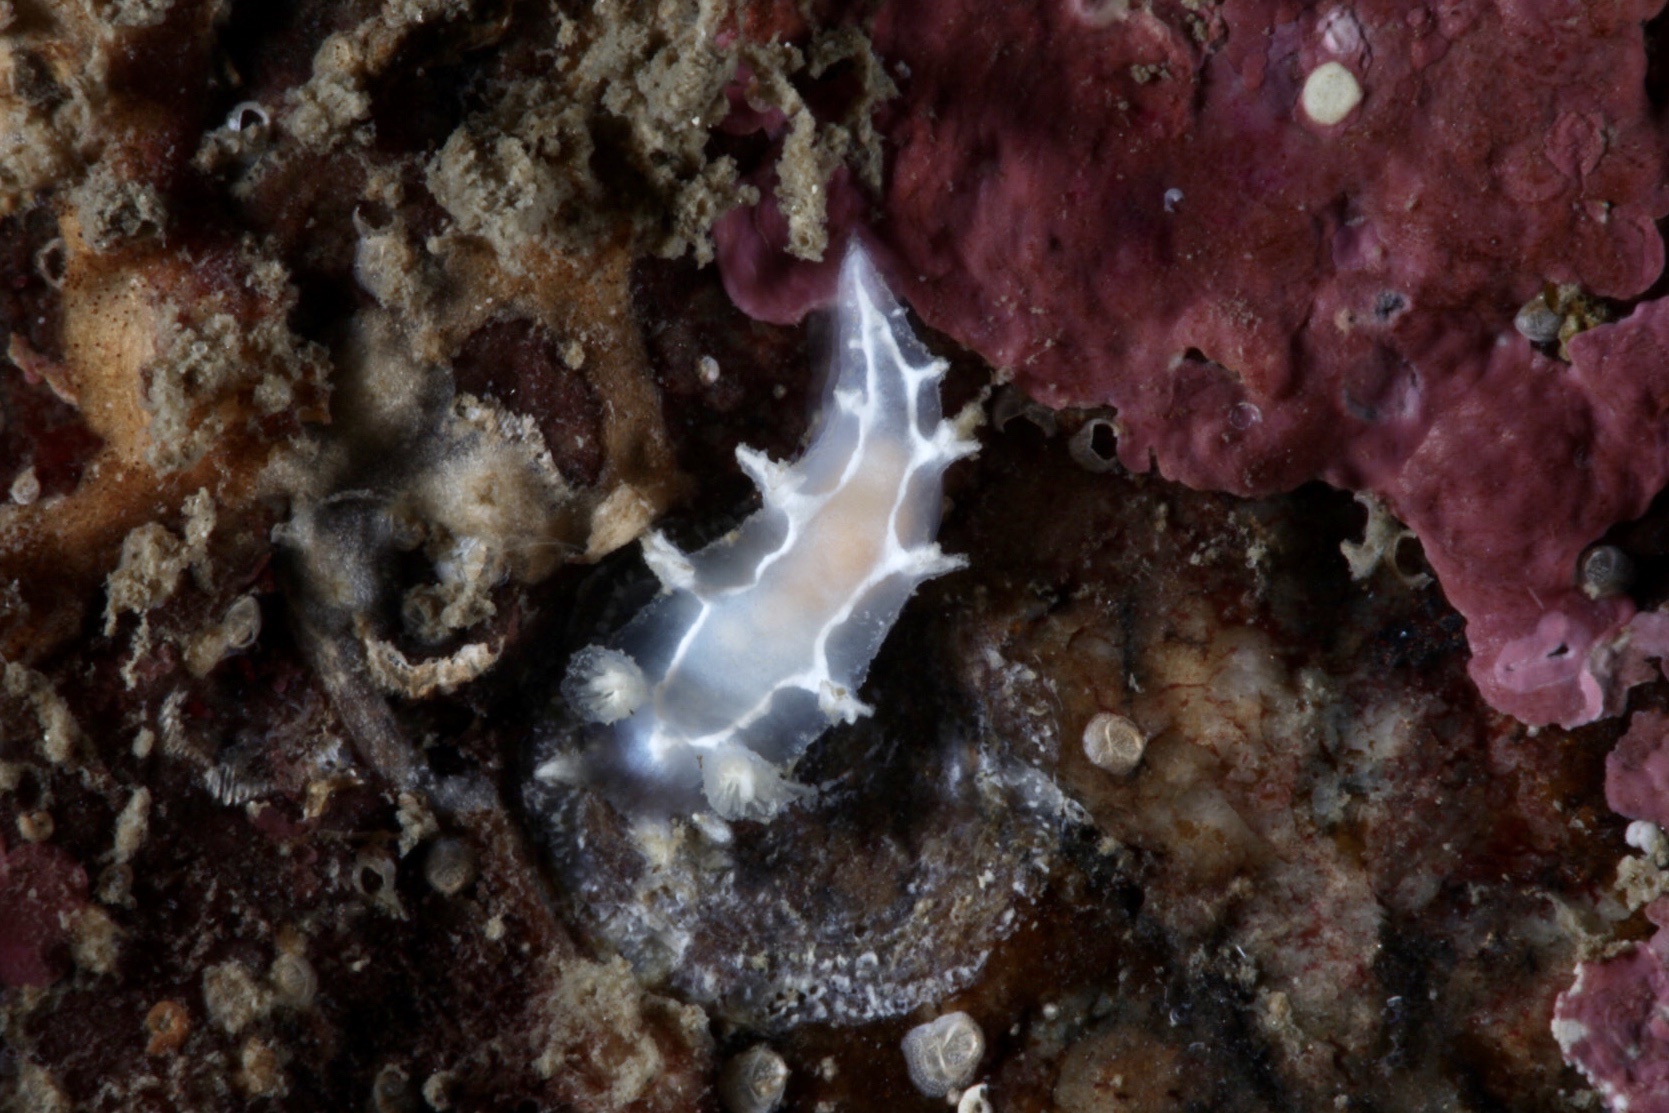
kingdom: Animalia
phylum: Mollusca
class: Gastropoda
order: Nudibranchia
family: Tritoniidae
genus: Duvaucelia
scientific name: Duvaucelia lineata
